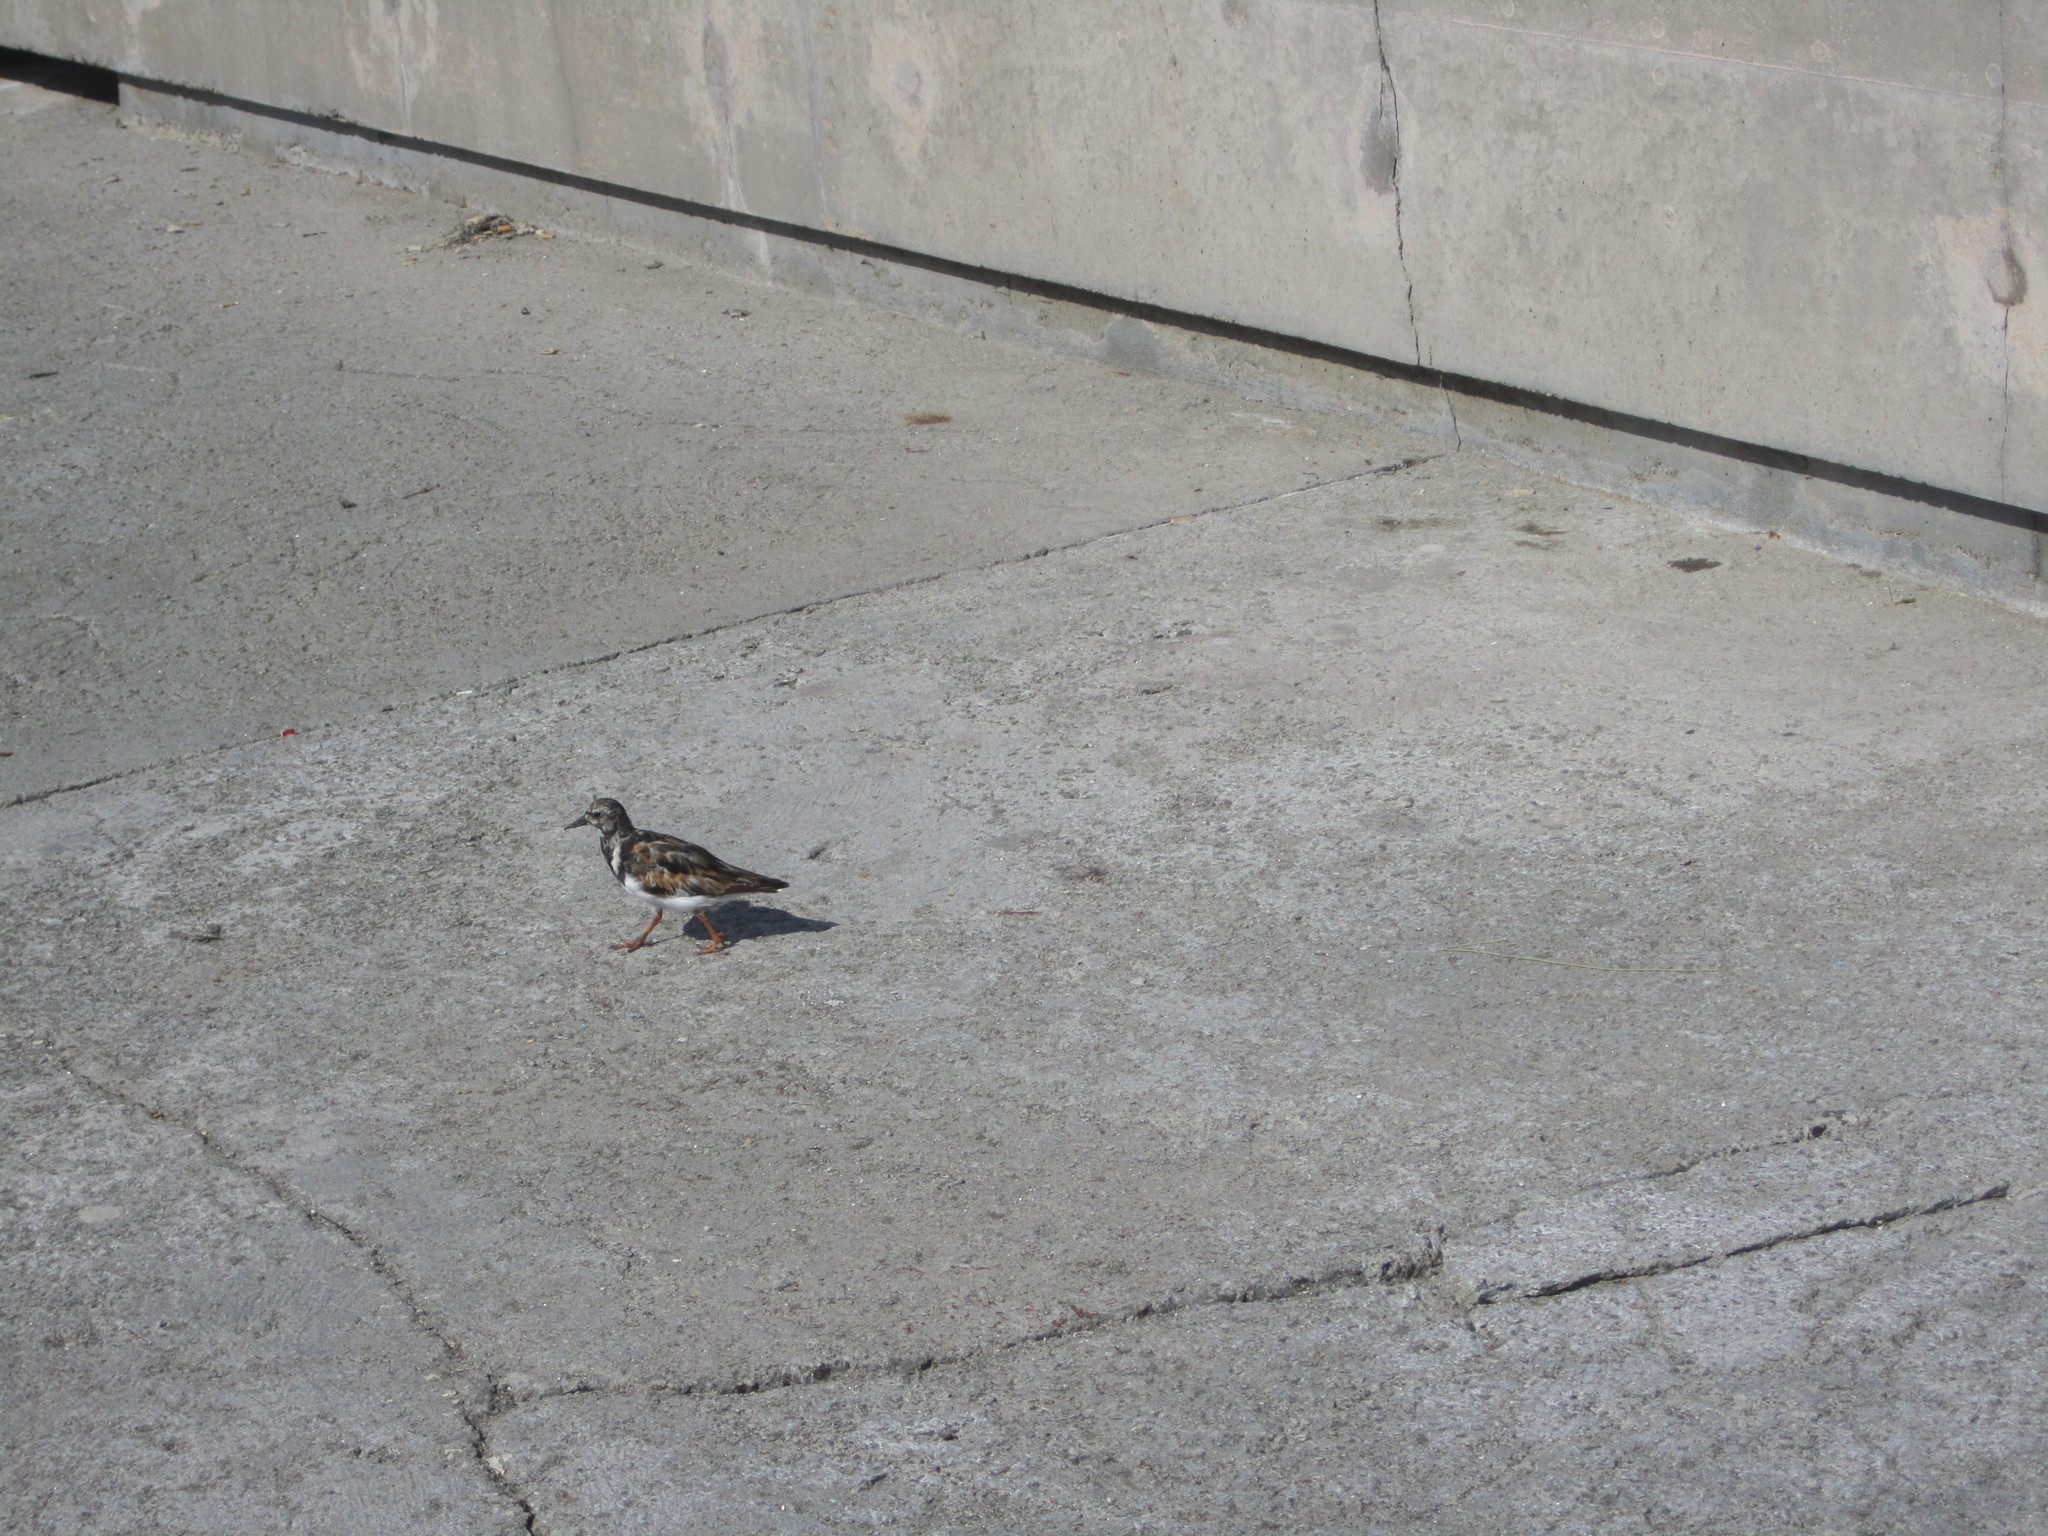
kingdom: Animalia
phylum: Chordata
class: Aves
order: Charadriiformes
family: Scolopacidae
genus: Arenaria
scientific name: Arenaria interpres
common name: Ruddy turnstone
